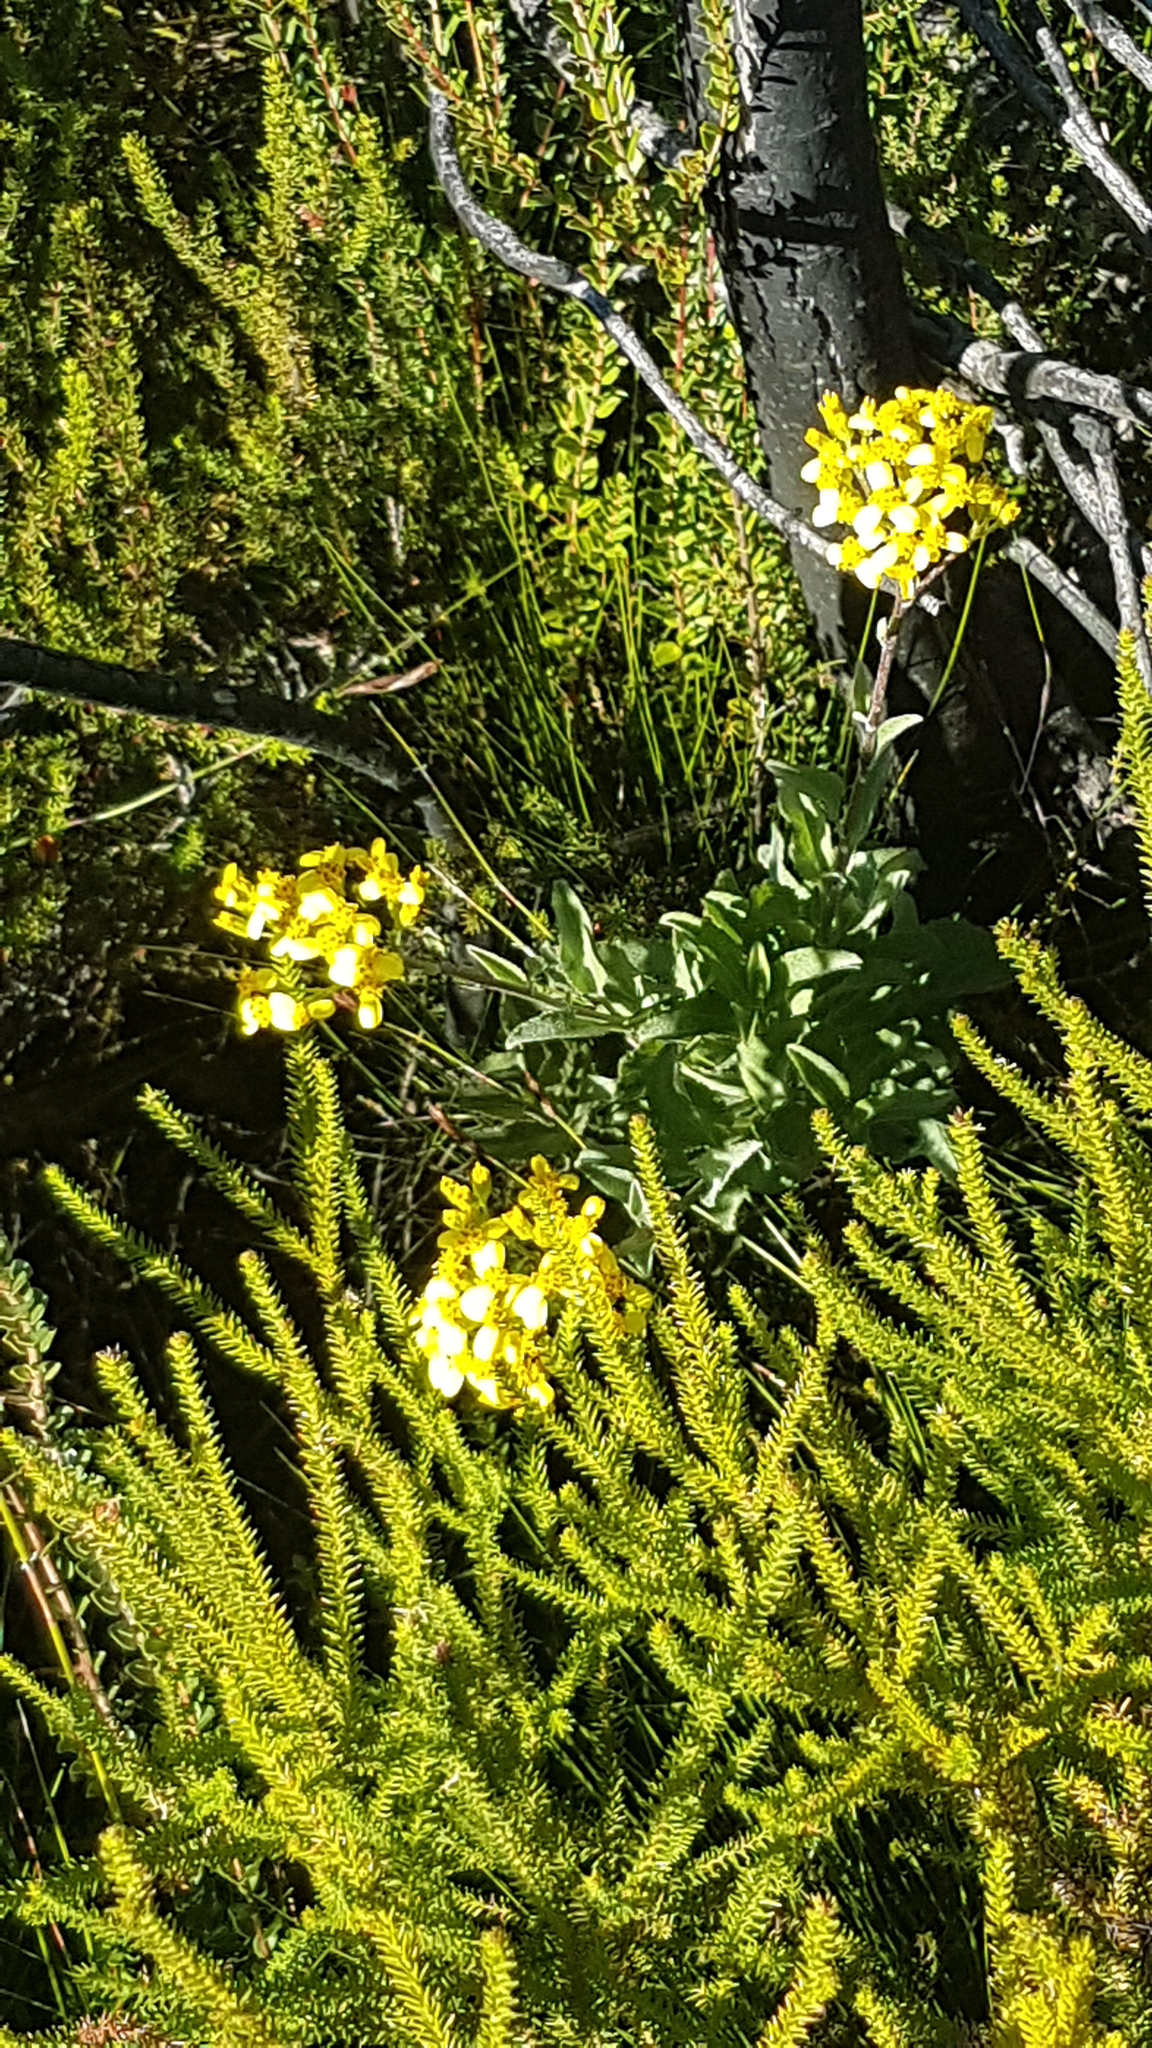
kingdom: Plantae
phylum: Tracheophyta
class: Magnoliopsida
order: Asterales
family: Asteraceae
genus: Senecio
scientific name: Senecio crenatus
